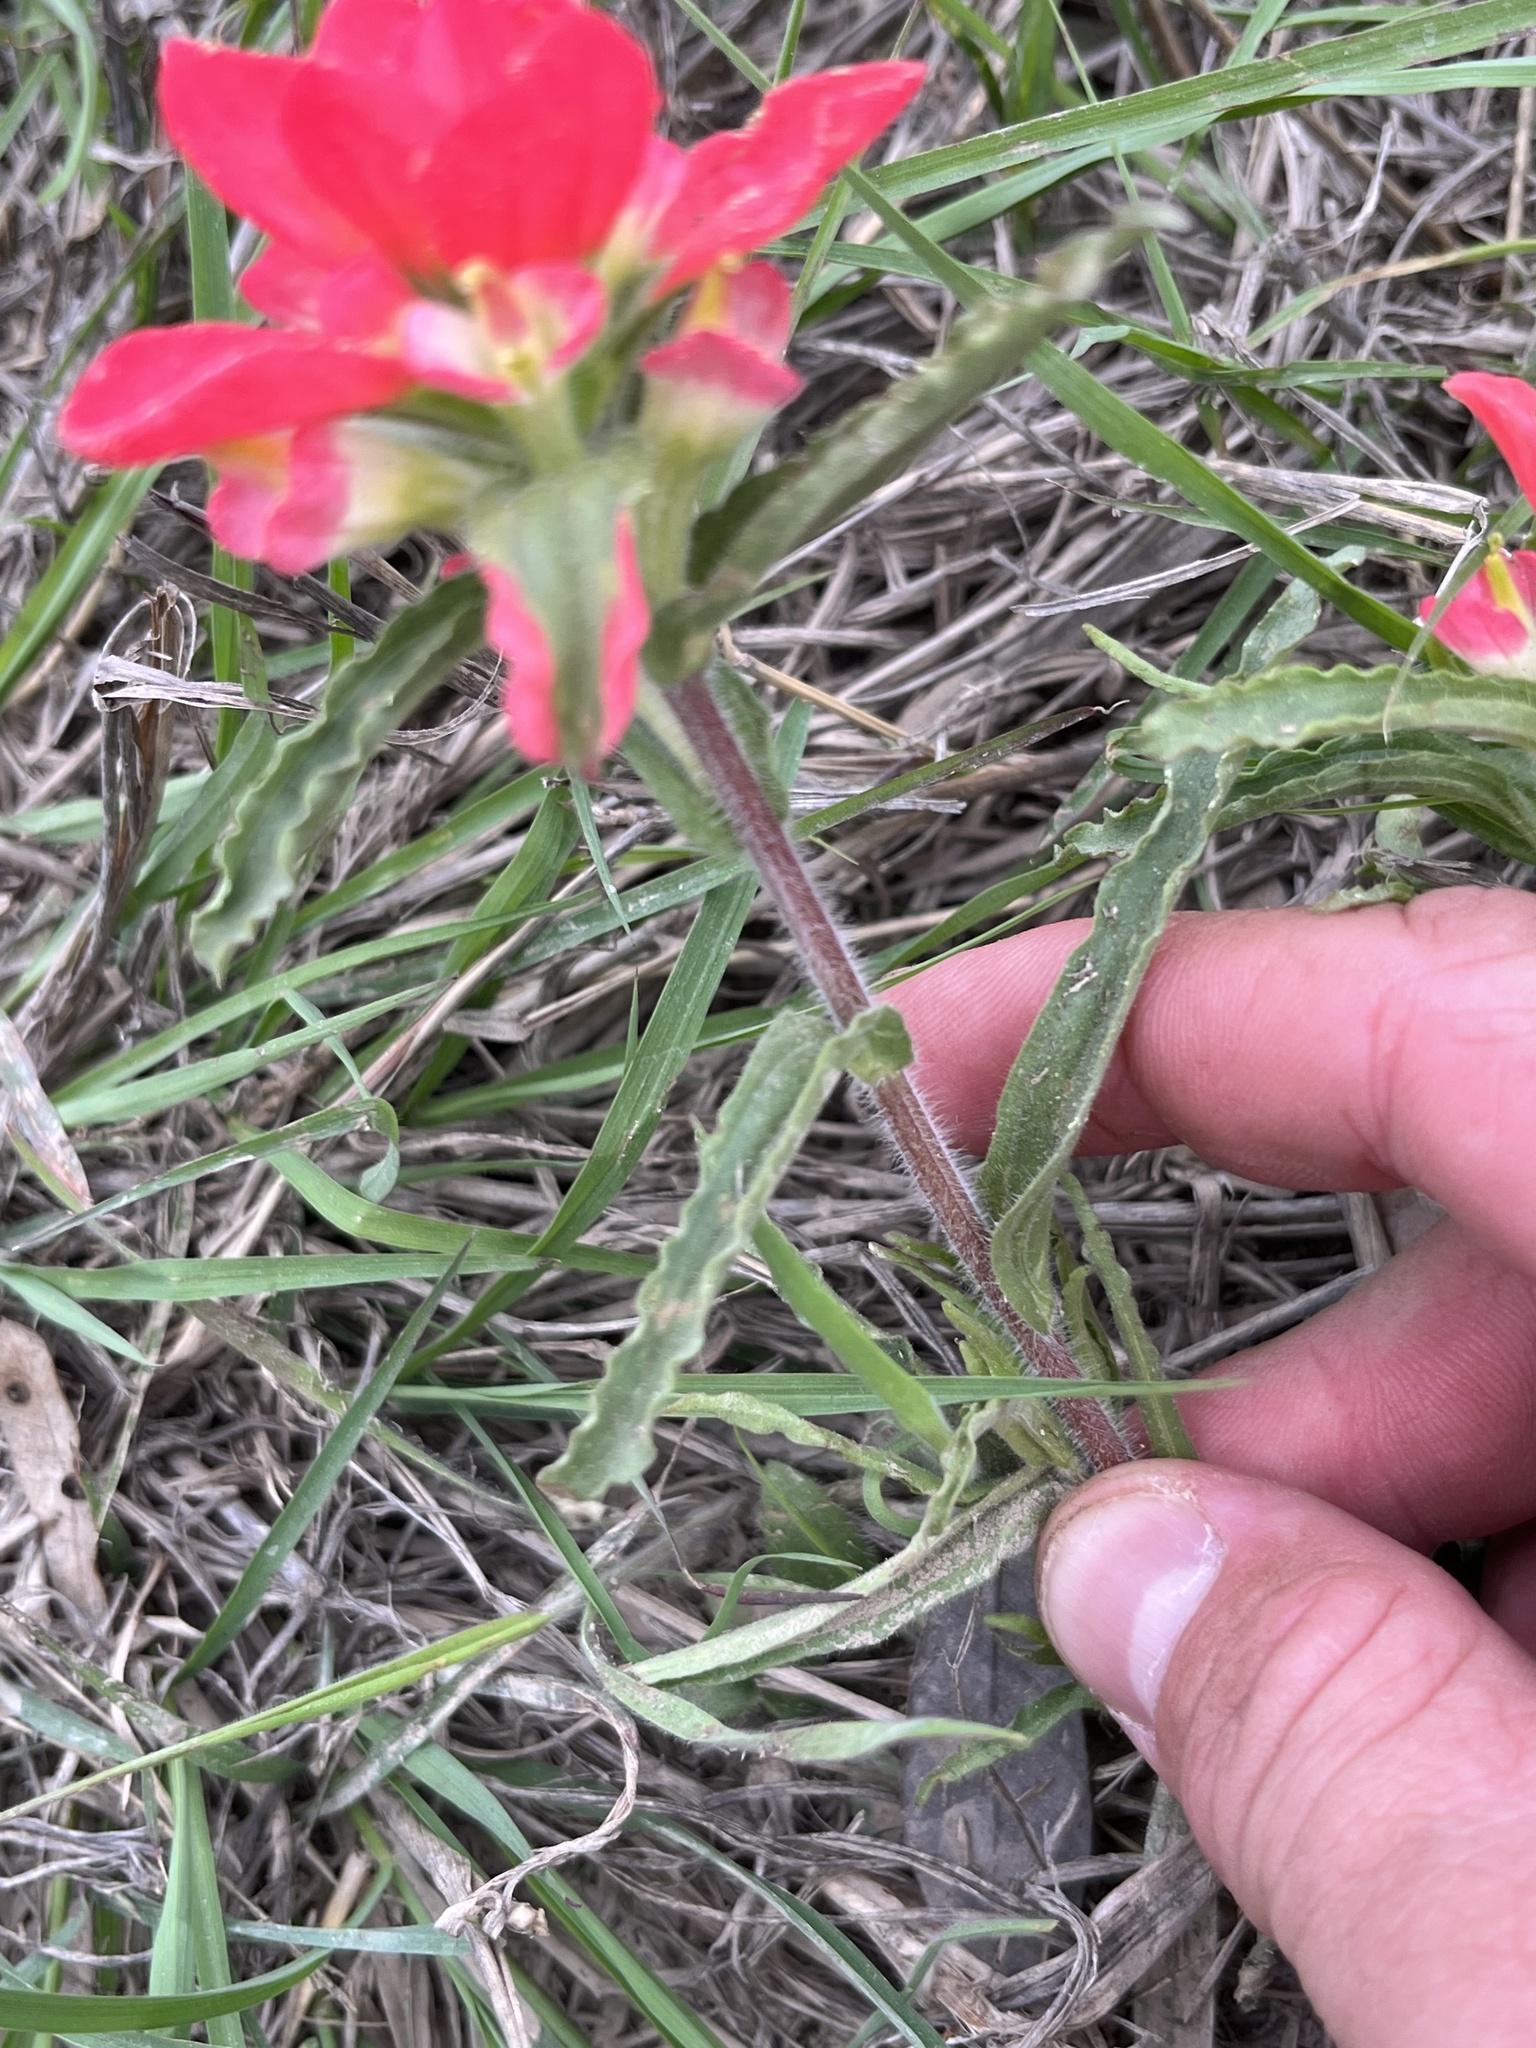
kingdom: Plantae
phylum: Tracheophyta
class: Magnoliopsida
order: Lamiales
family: Orobanchaceae
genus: Castilleja
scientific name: Castilleja indivisa
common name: Texas paintbrush
